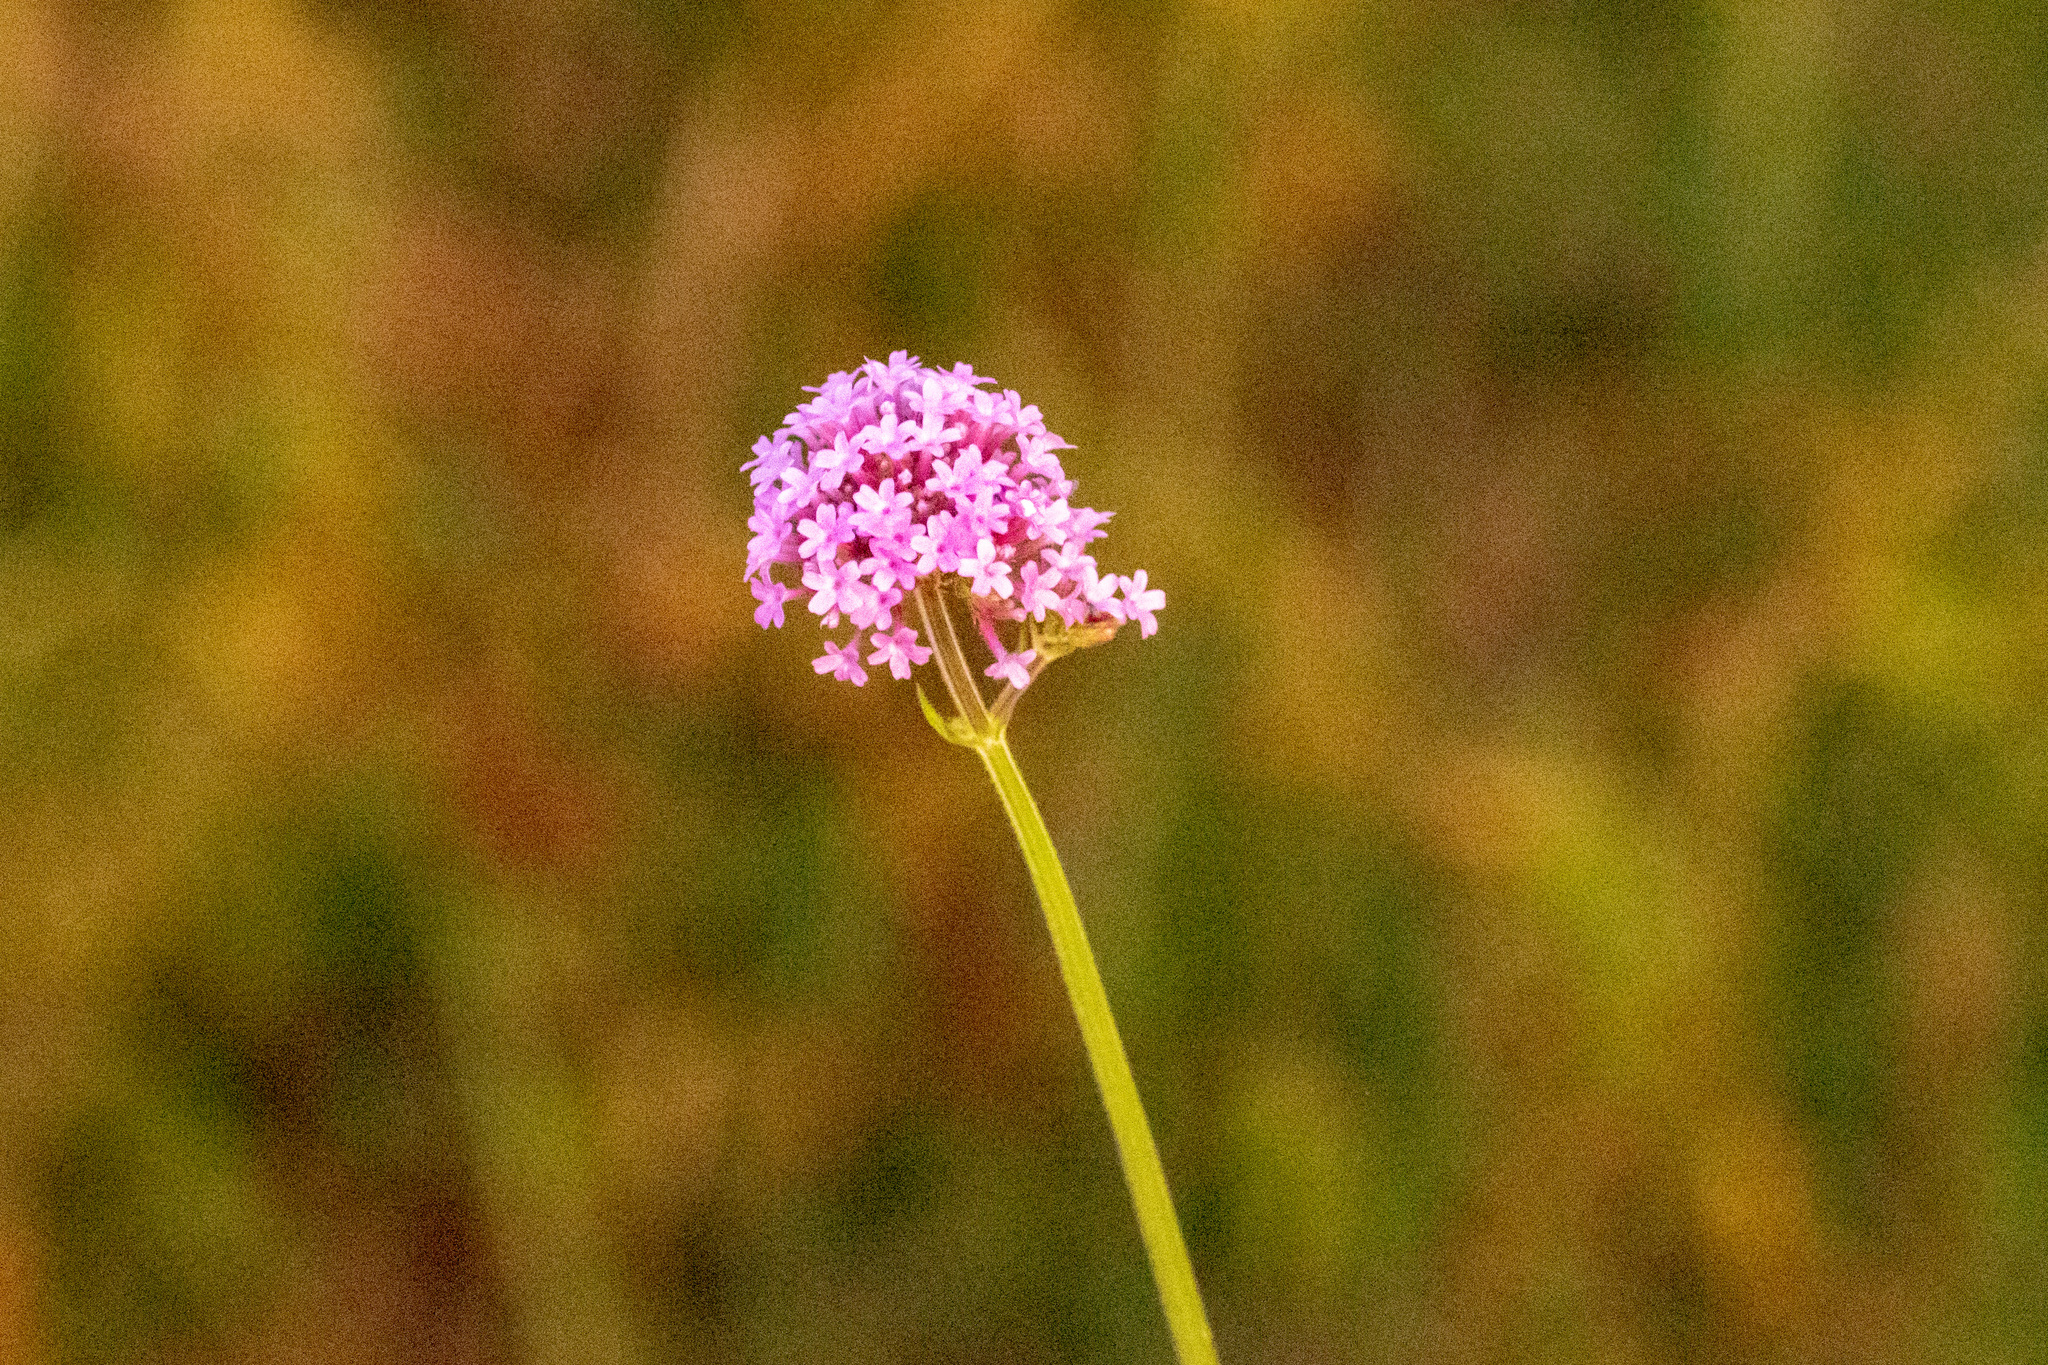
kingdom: Plantae
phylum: Tracheophyta
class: Magnoliopsida
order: Lamiales
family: Verbenaceae
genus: Verbena
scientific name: Verbena bonariensis
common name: Purpletop vervain
